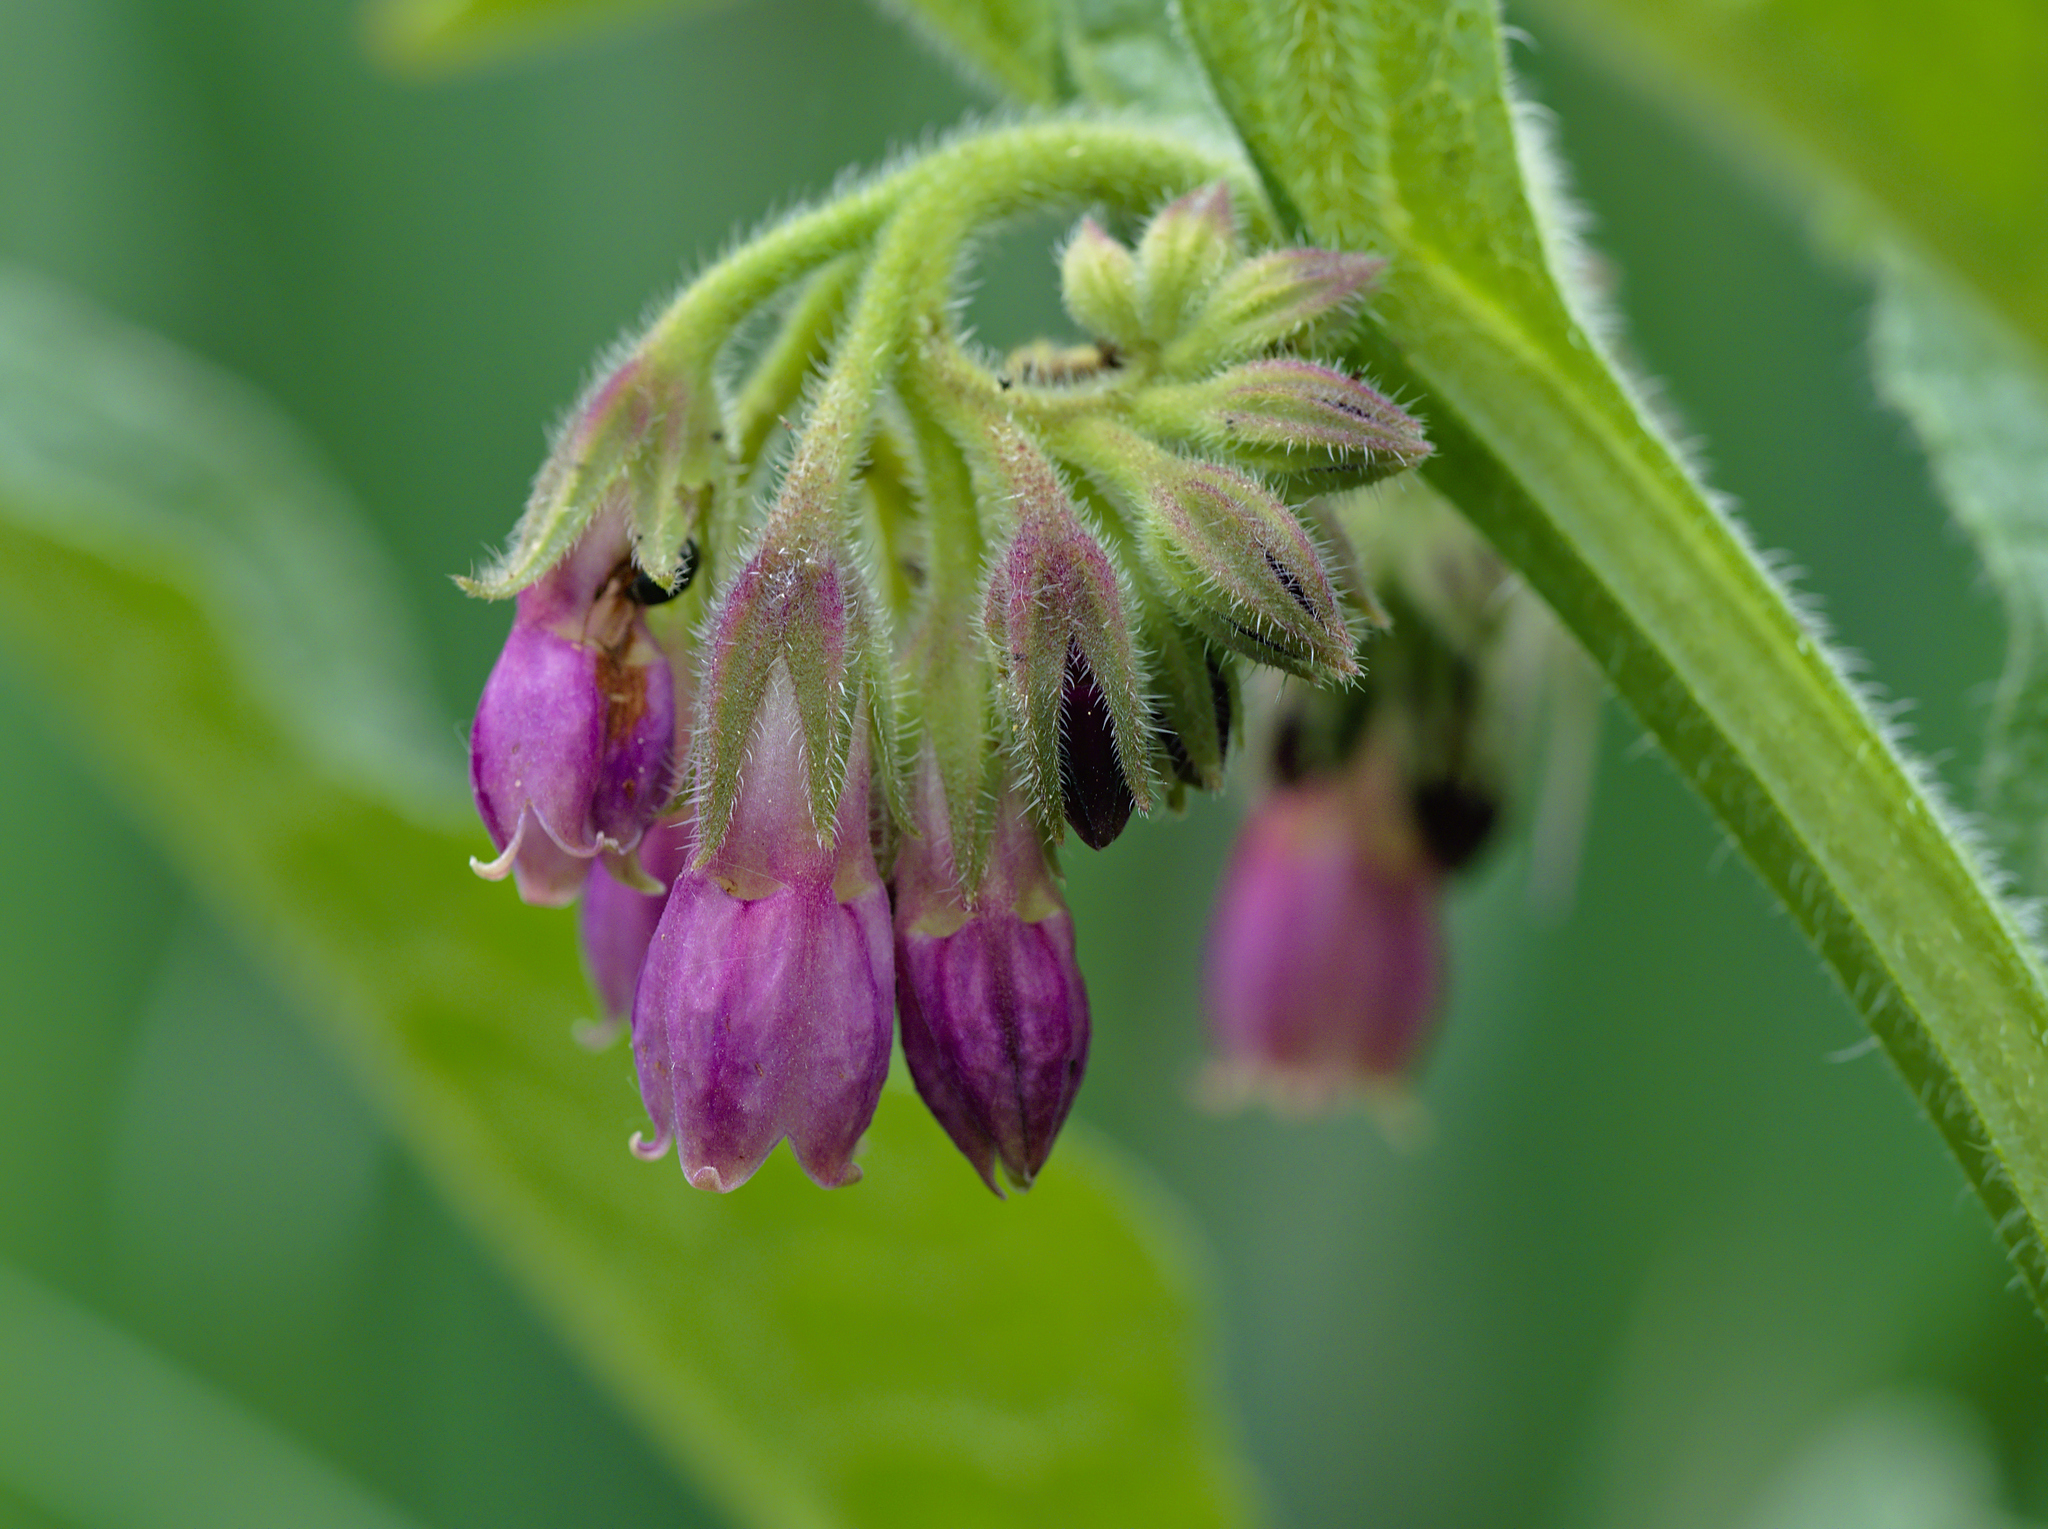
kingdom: Plantae
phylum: Tracheophyta
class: Magnoliopsida
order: Boraginales
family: Boraginaceae
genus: Symphytum
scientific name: Symphytum officinale
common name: Common comfrey
